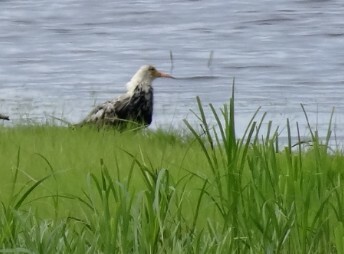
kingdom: Animalia
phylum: Chordata
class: Aves
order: Charadriiformes
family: Scolopacidae
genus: Calidris
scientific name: Calidris pugnax
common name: Ruff
